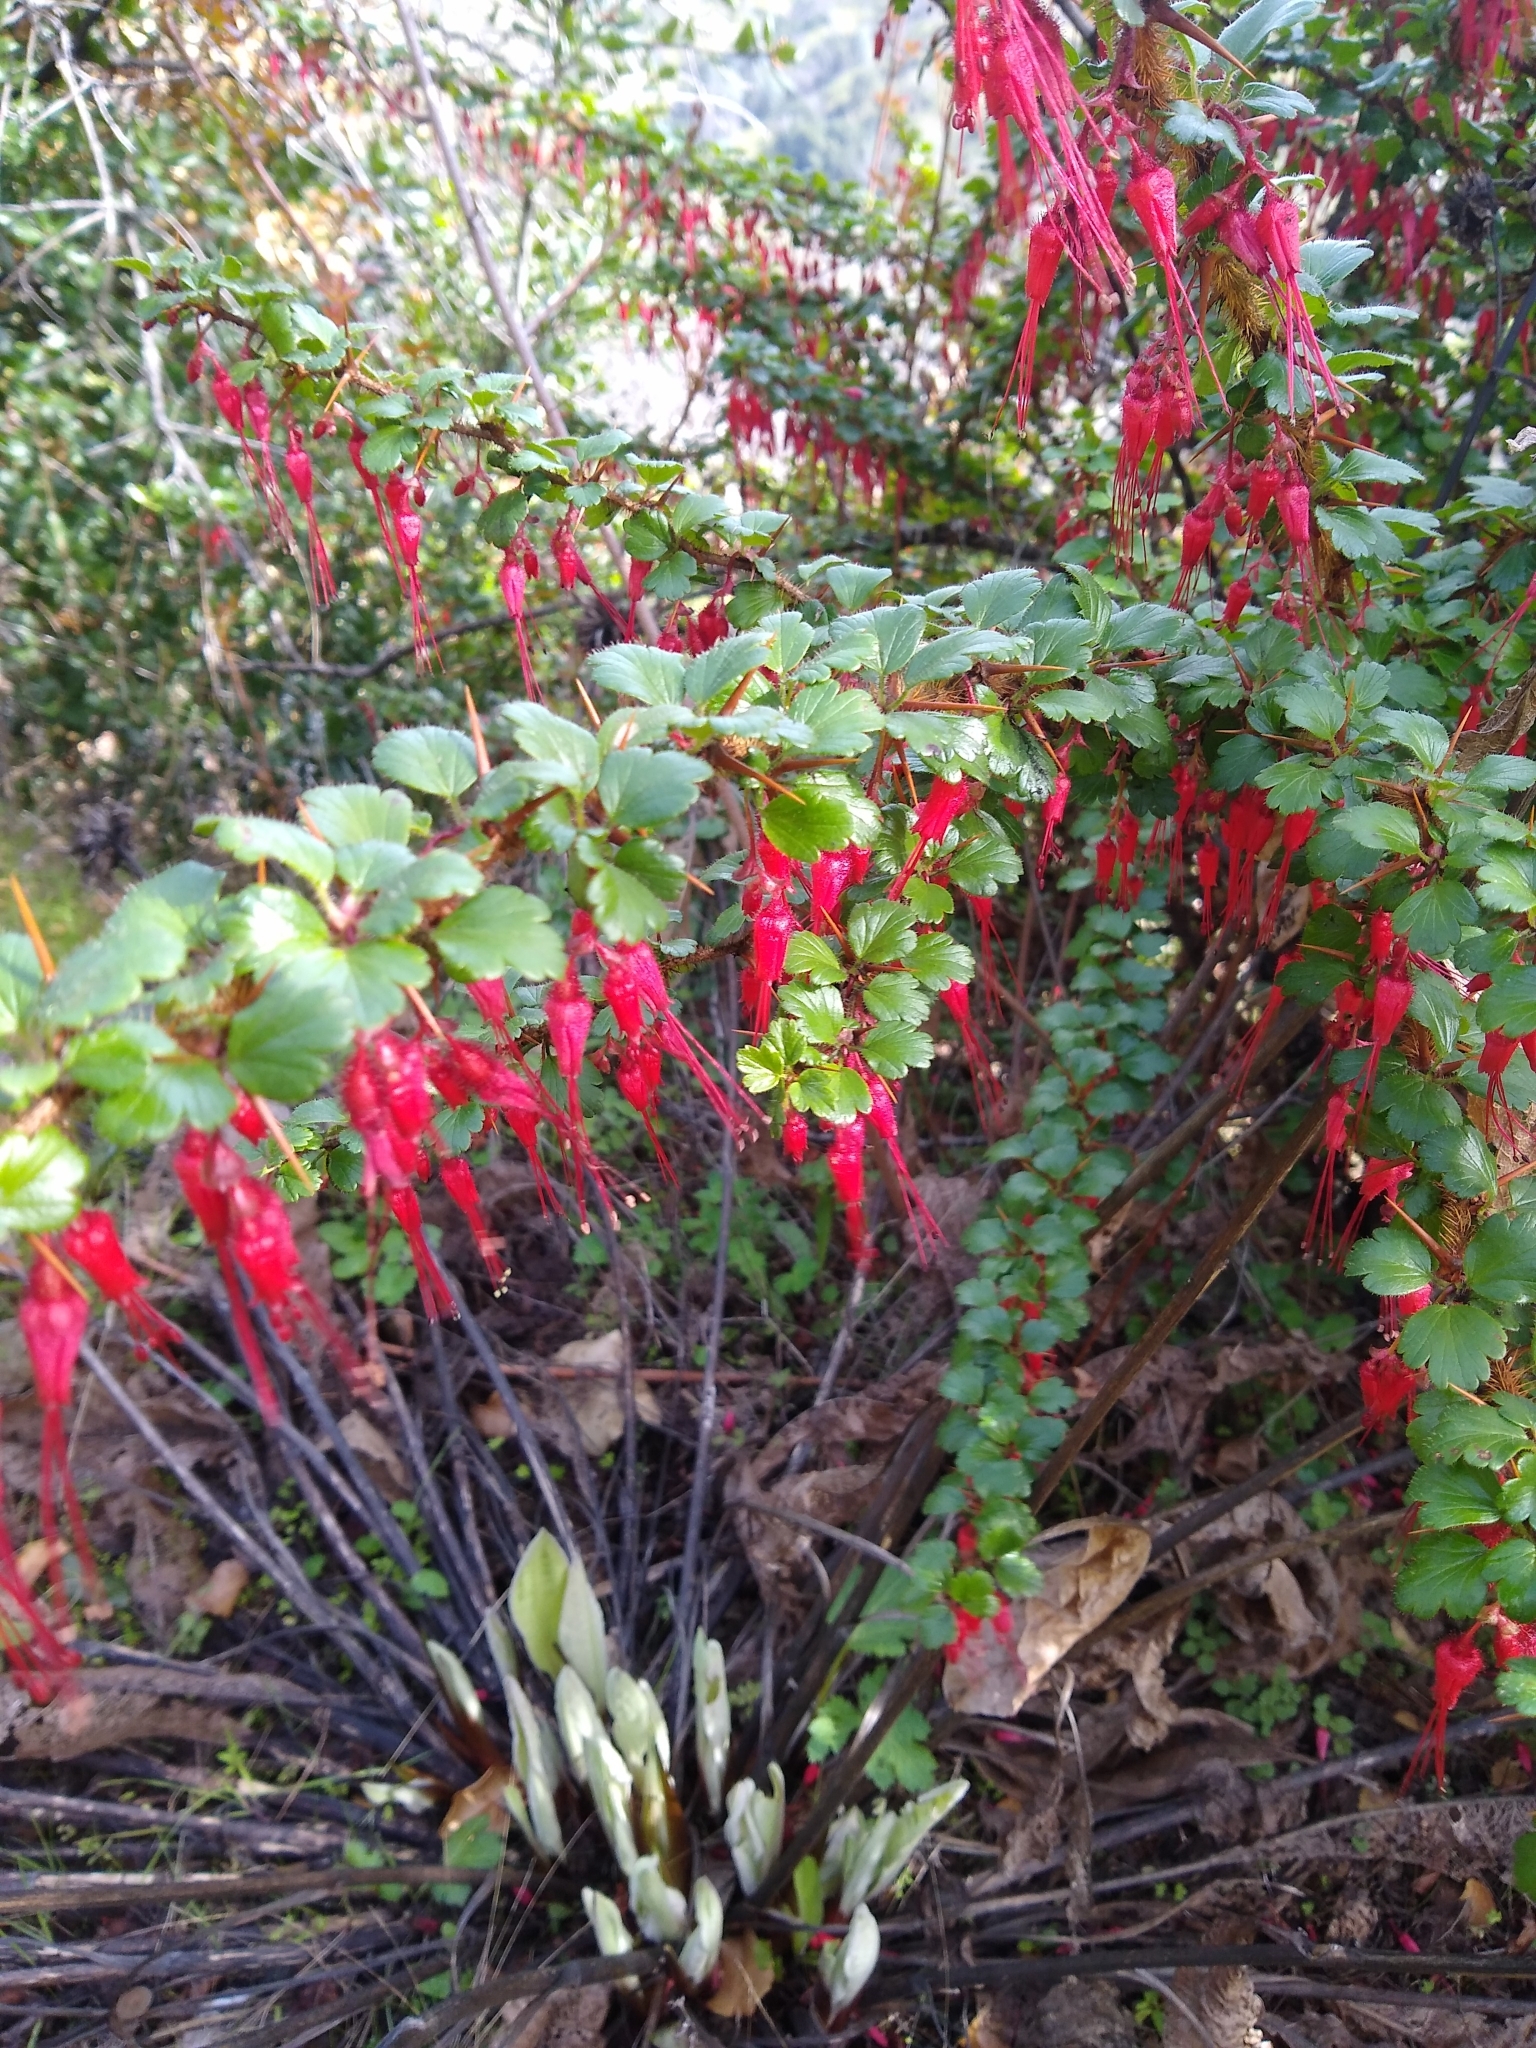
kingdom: Plantae
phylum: Tracheophyta
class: Magnoliopsida
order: Saxifragales
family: Grossulariaceae
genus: Ribes
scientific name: Ribes speciosum
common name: Fuchsia-flower gooseberry
